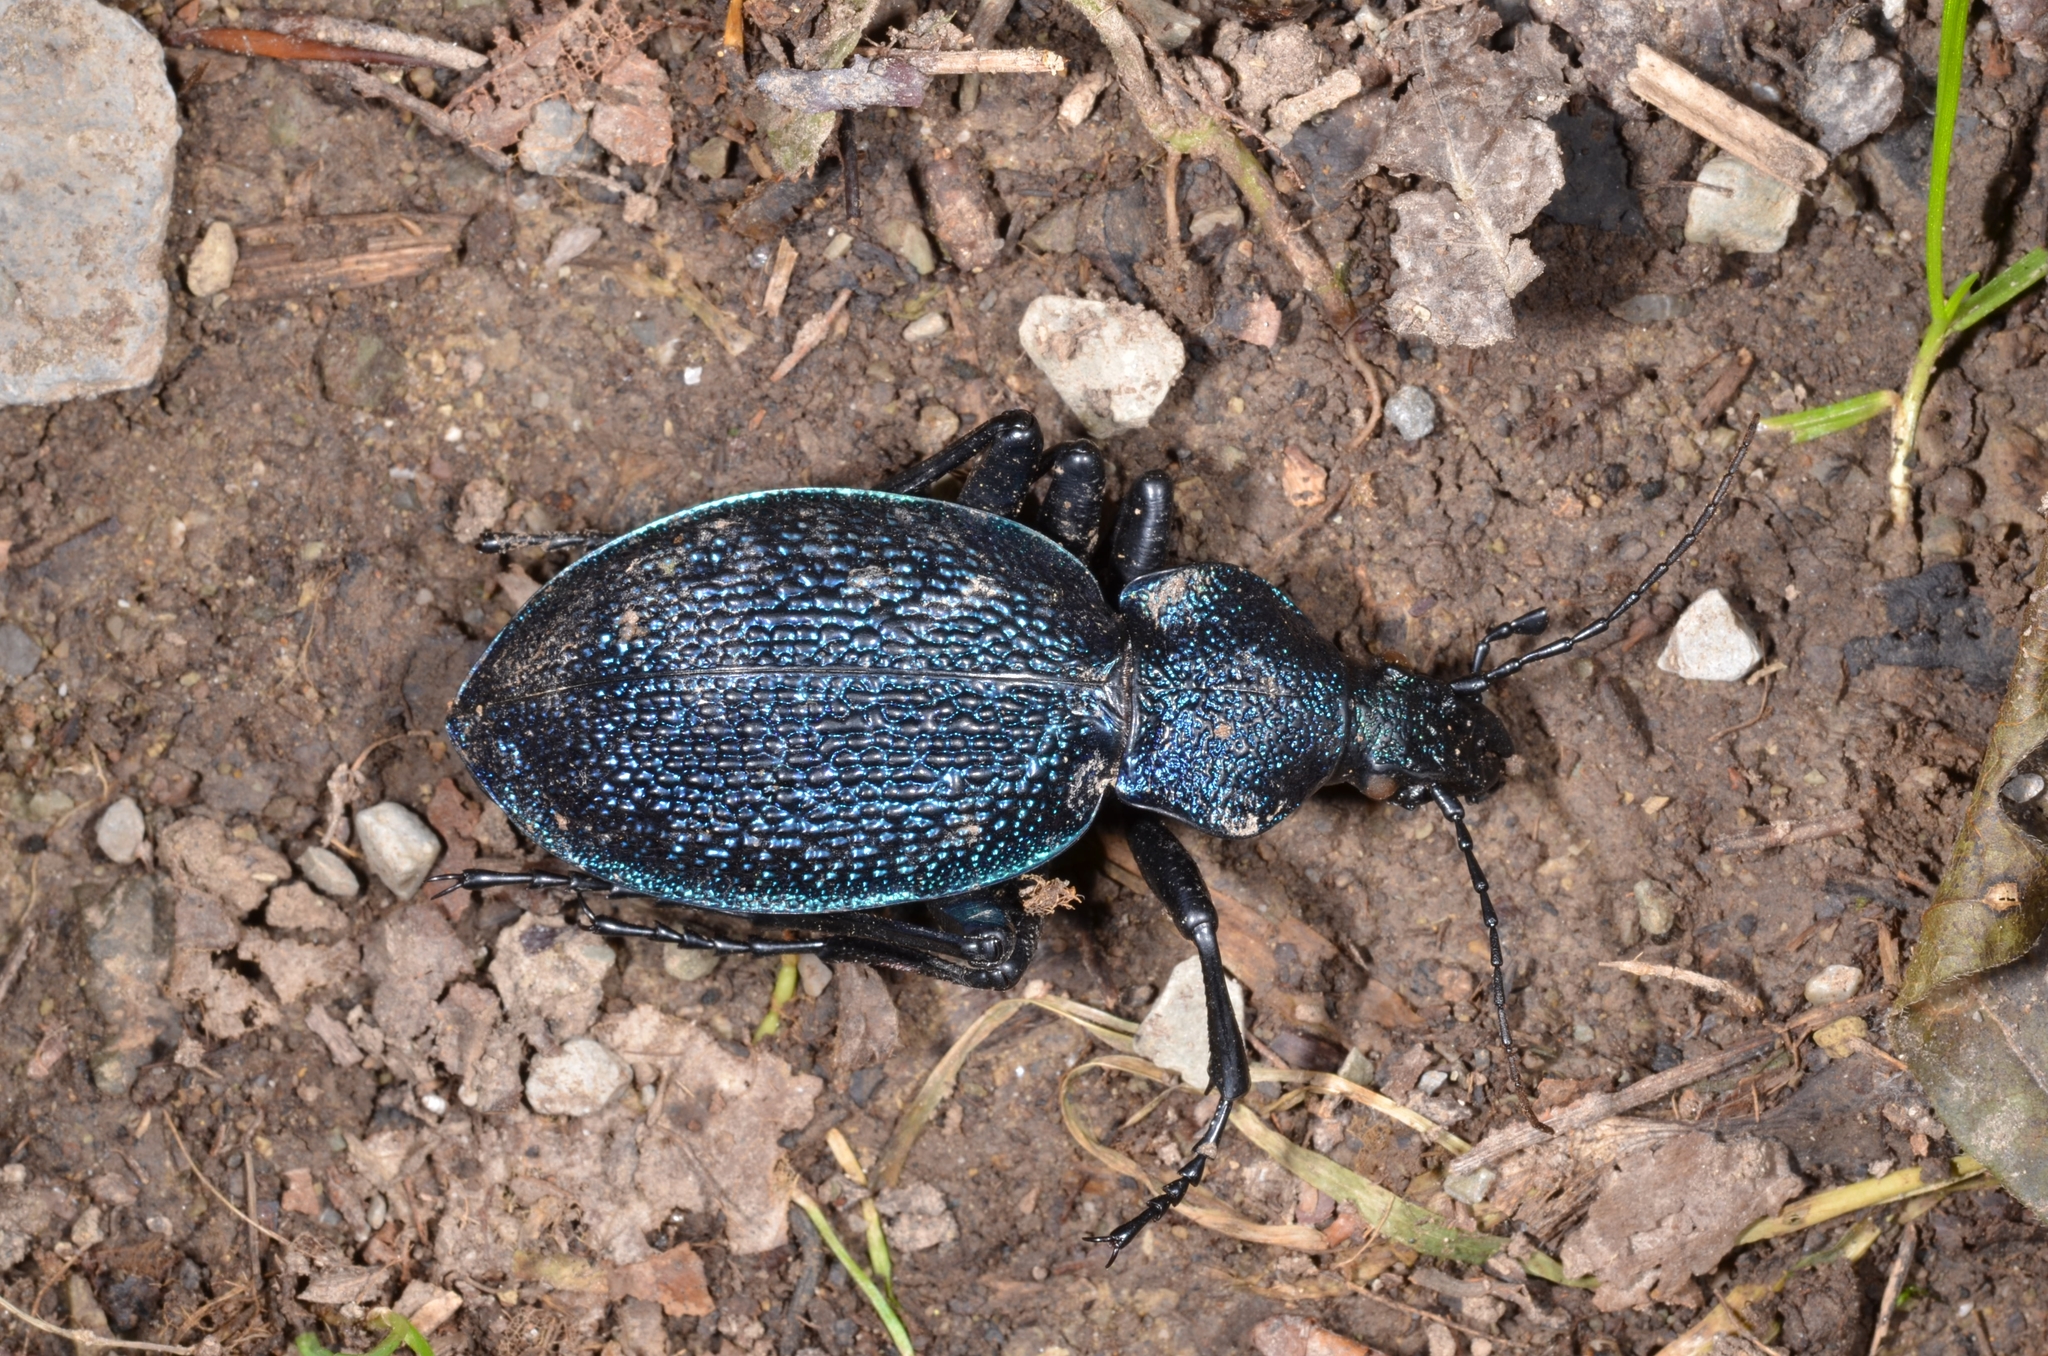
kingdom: Animalia
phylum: Arthropoda
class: Insecta
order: Coleoptera
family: Carabidae
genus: Carabus
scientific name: Carabus scabrosus
